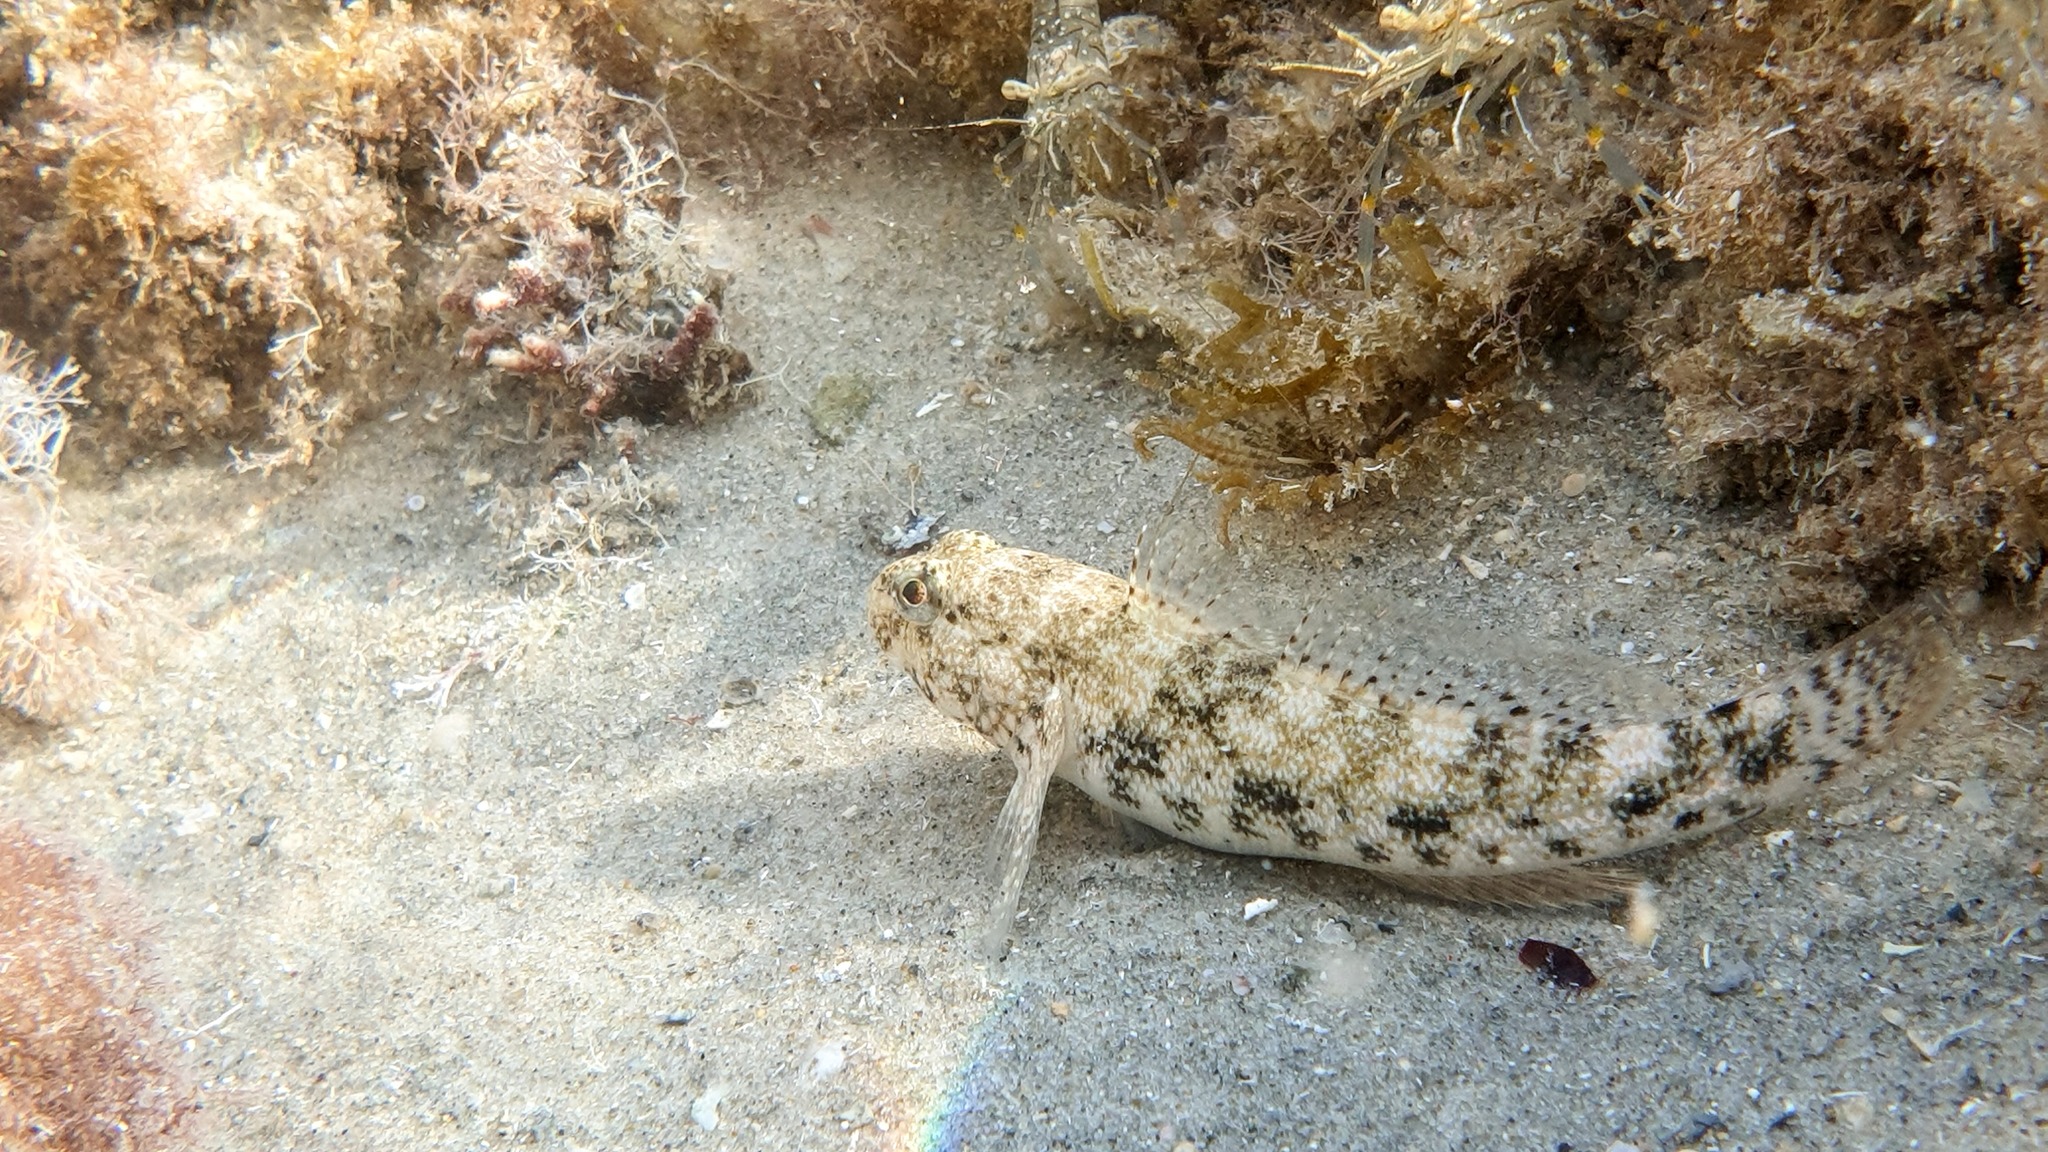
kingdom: Animalia
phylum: Chordata
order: Perciformes
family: Gobiidae
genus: Gobius
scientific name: Gobius cobitis
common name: Giant goby
